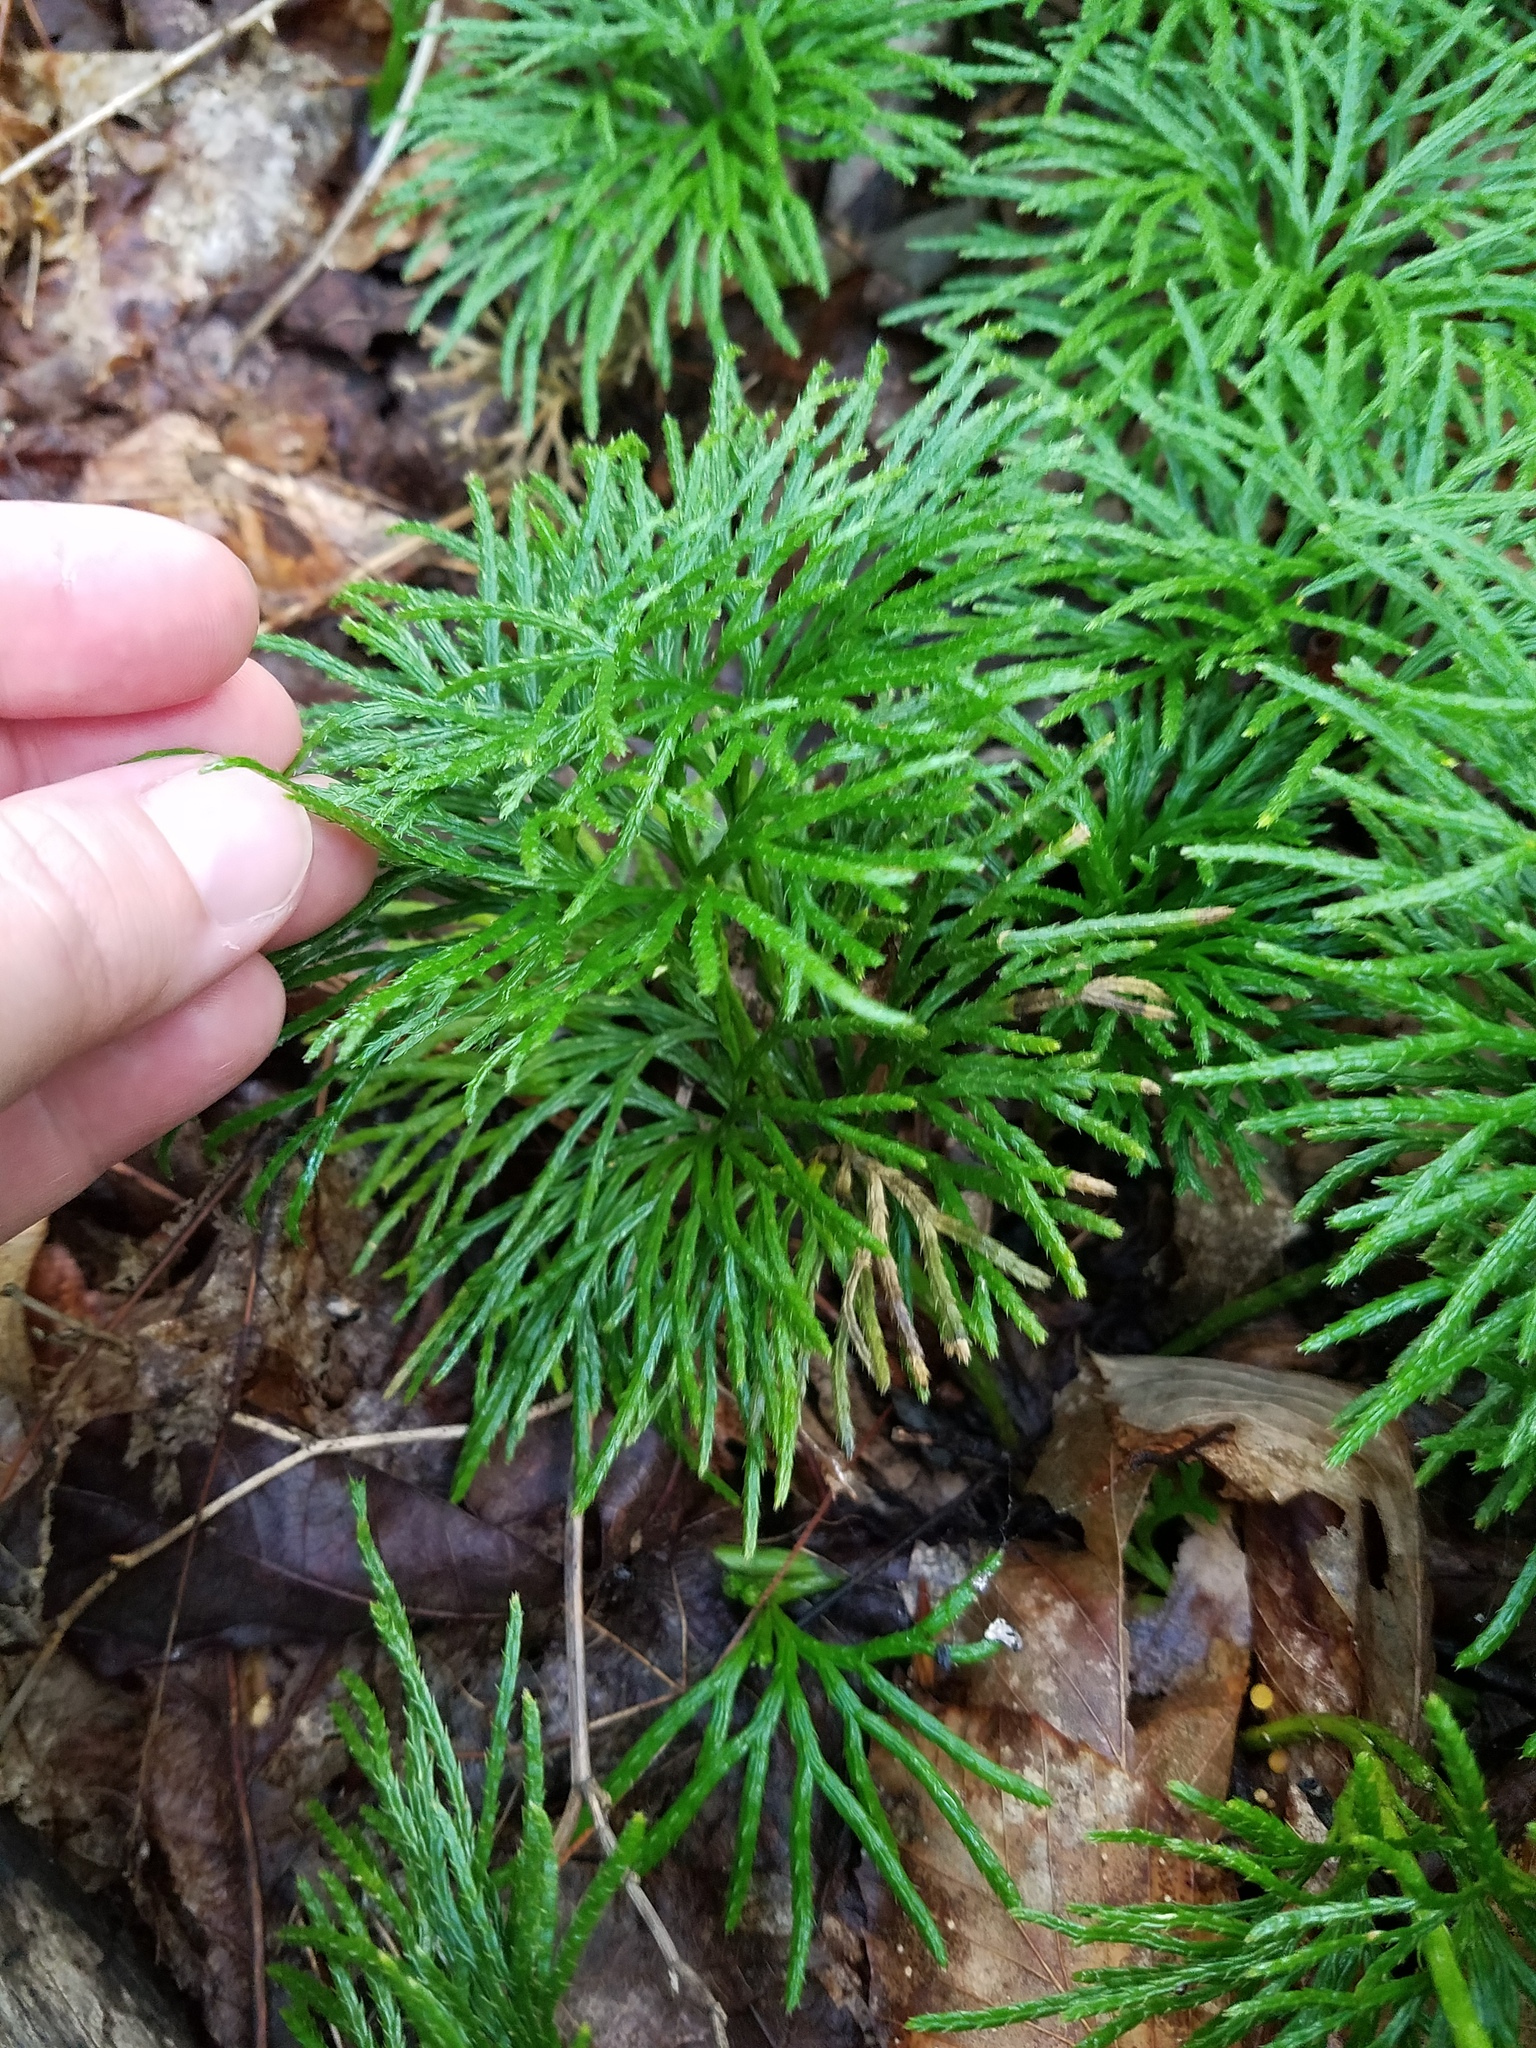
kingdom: Plantae
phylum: Tracheophyta
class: Lycopodiopsida
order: Lycopodiales
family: Lycopodiaceae
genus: Diphasiastrum
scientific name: Diphasiastrum digitatum
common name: Southern running-pine
